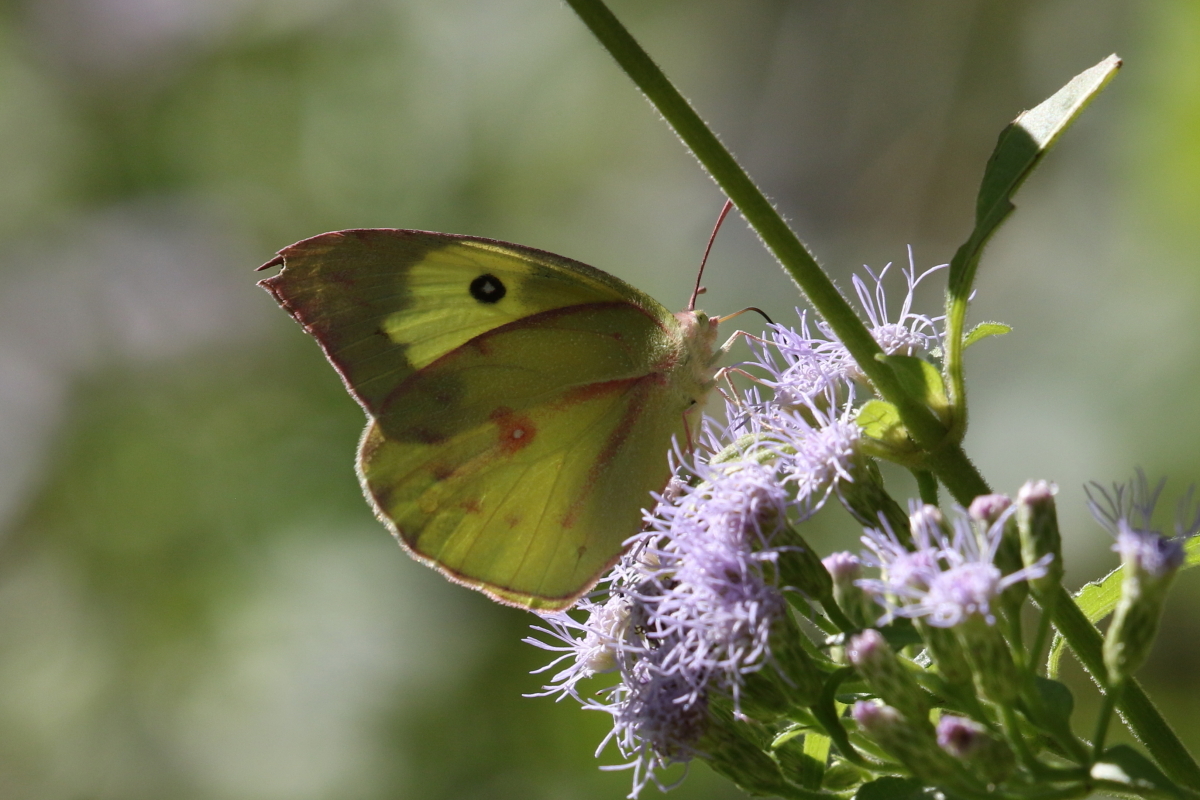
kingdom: Animalia
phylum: Arthropoda
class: Insecta
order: Lepidoptera
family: Pieridae
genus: Zerene
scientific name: Zerene cesonia
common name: Southern dogface
